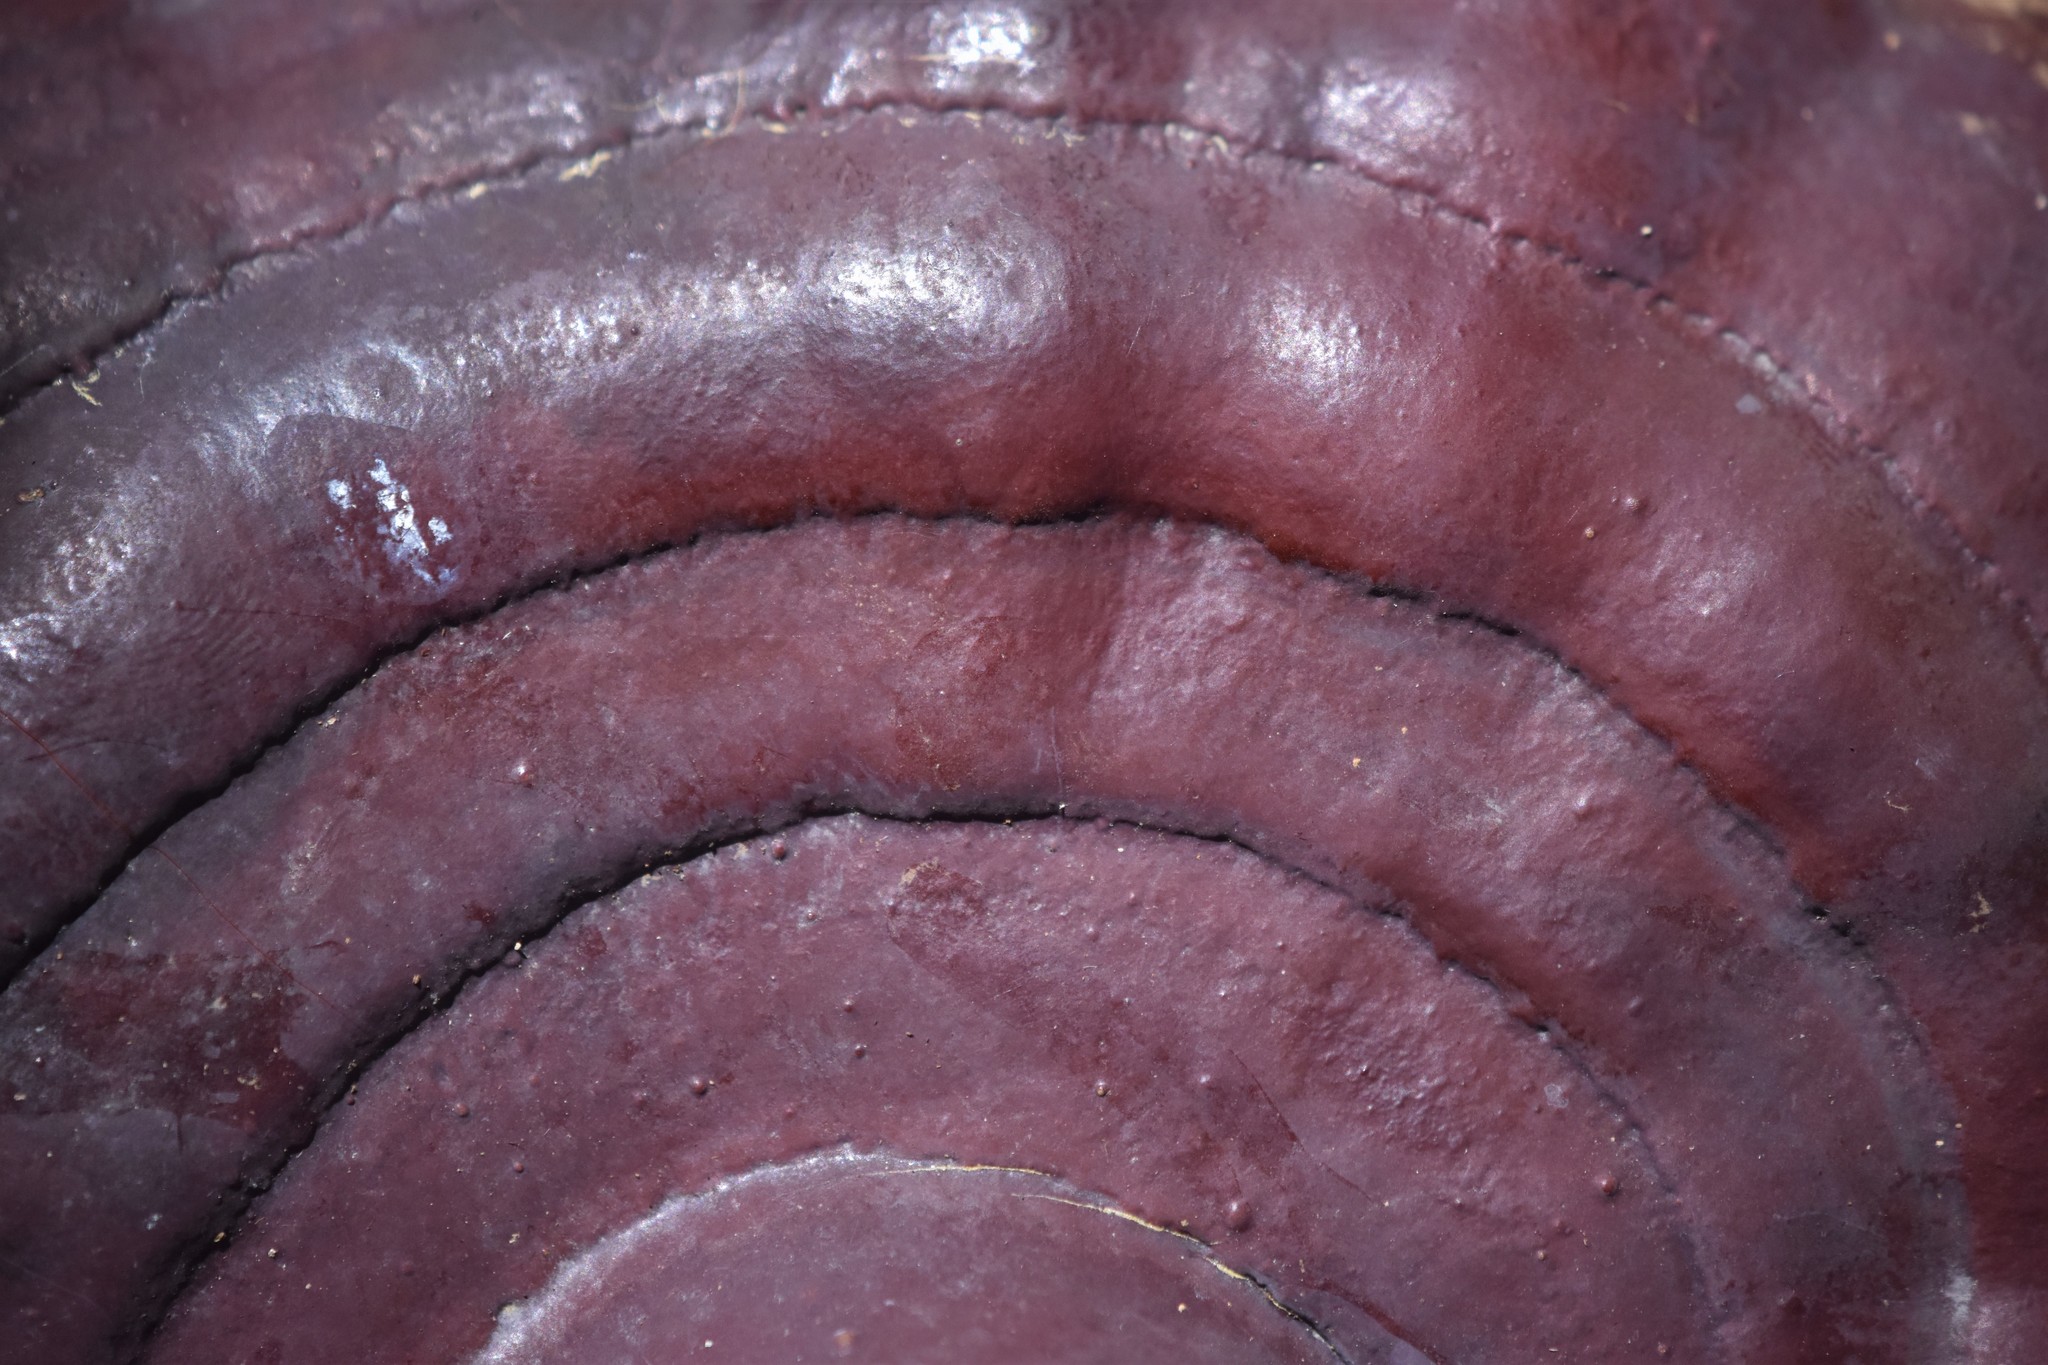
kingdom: Fungi
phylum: Basidiomycota
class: Agaricomycetes
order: Polyporales
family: Polyporaceae
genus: Ganoderma
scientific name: Ganoderma oregonense
